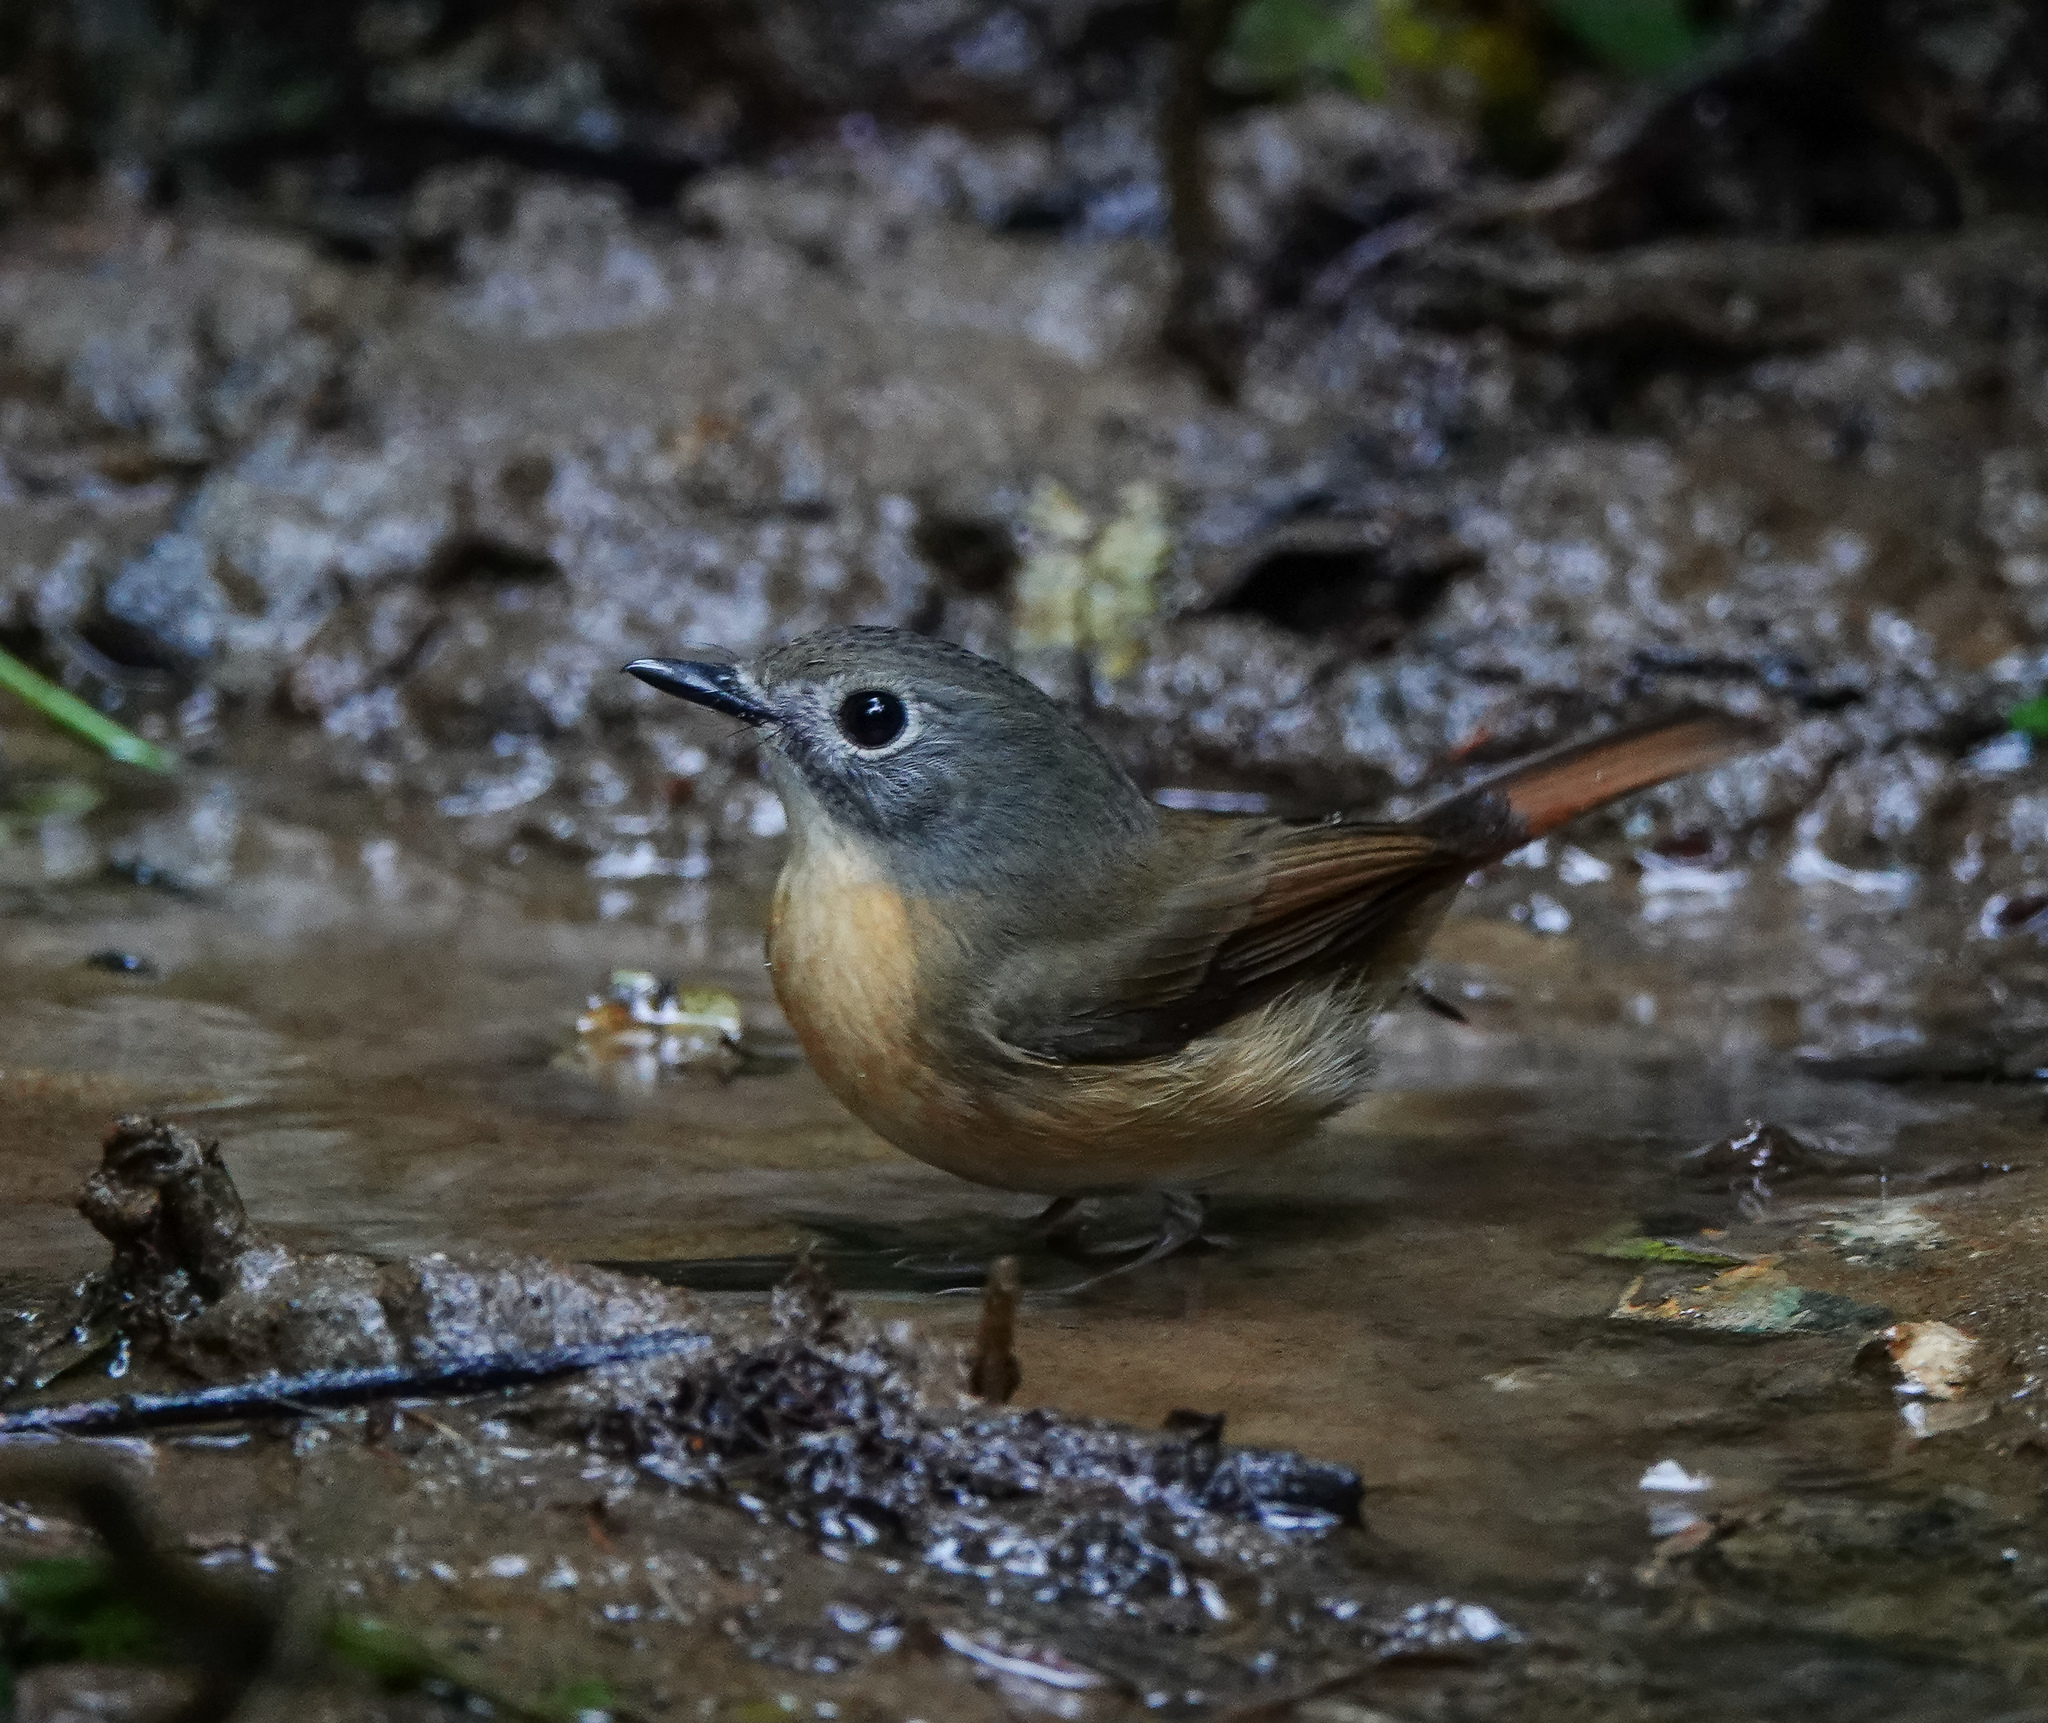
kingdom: Animalia
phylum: Chordata
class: Aves
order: Passeriformes
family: Muscicapidae
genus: Cyornis
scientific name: Cyornis poliogenys
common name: Pale-chinned blue flycatcher
